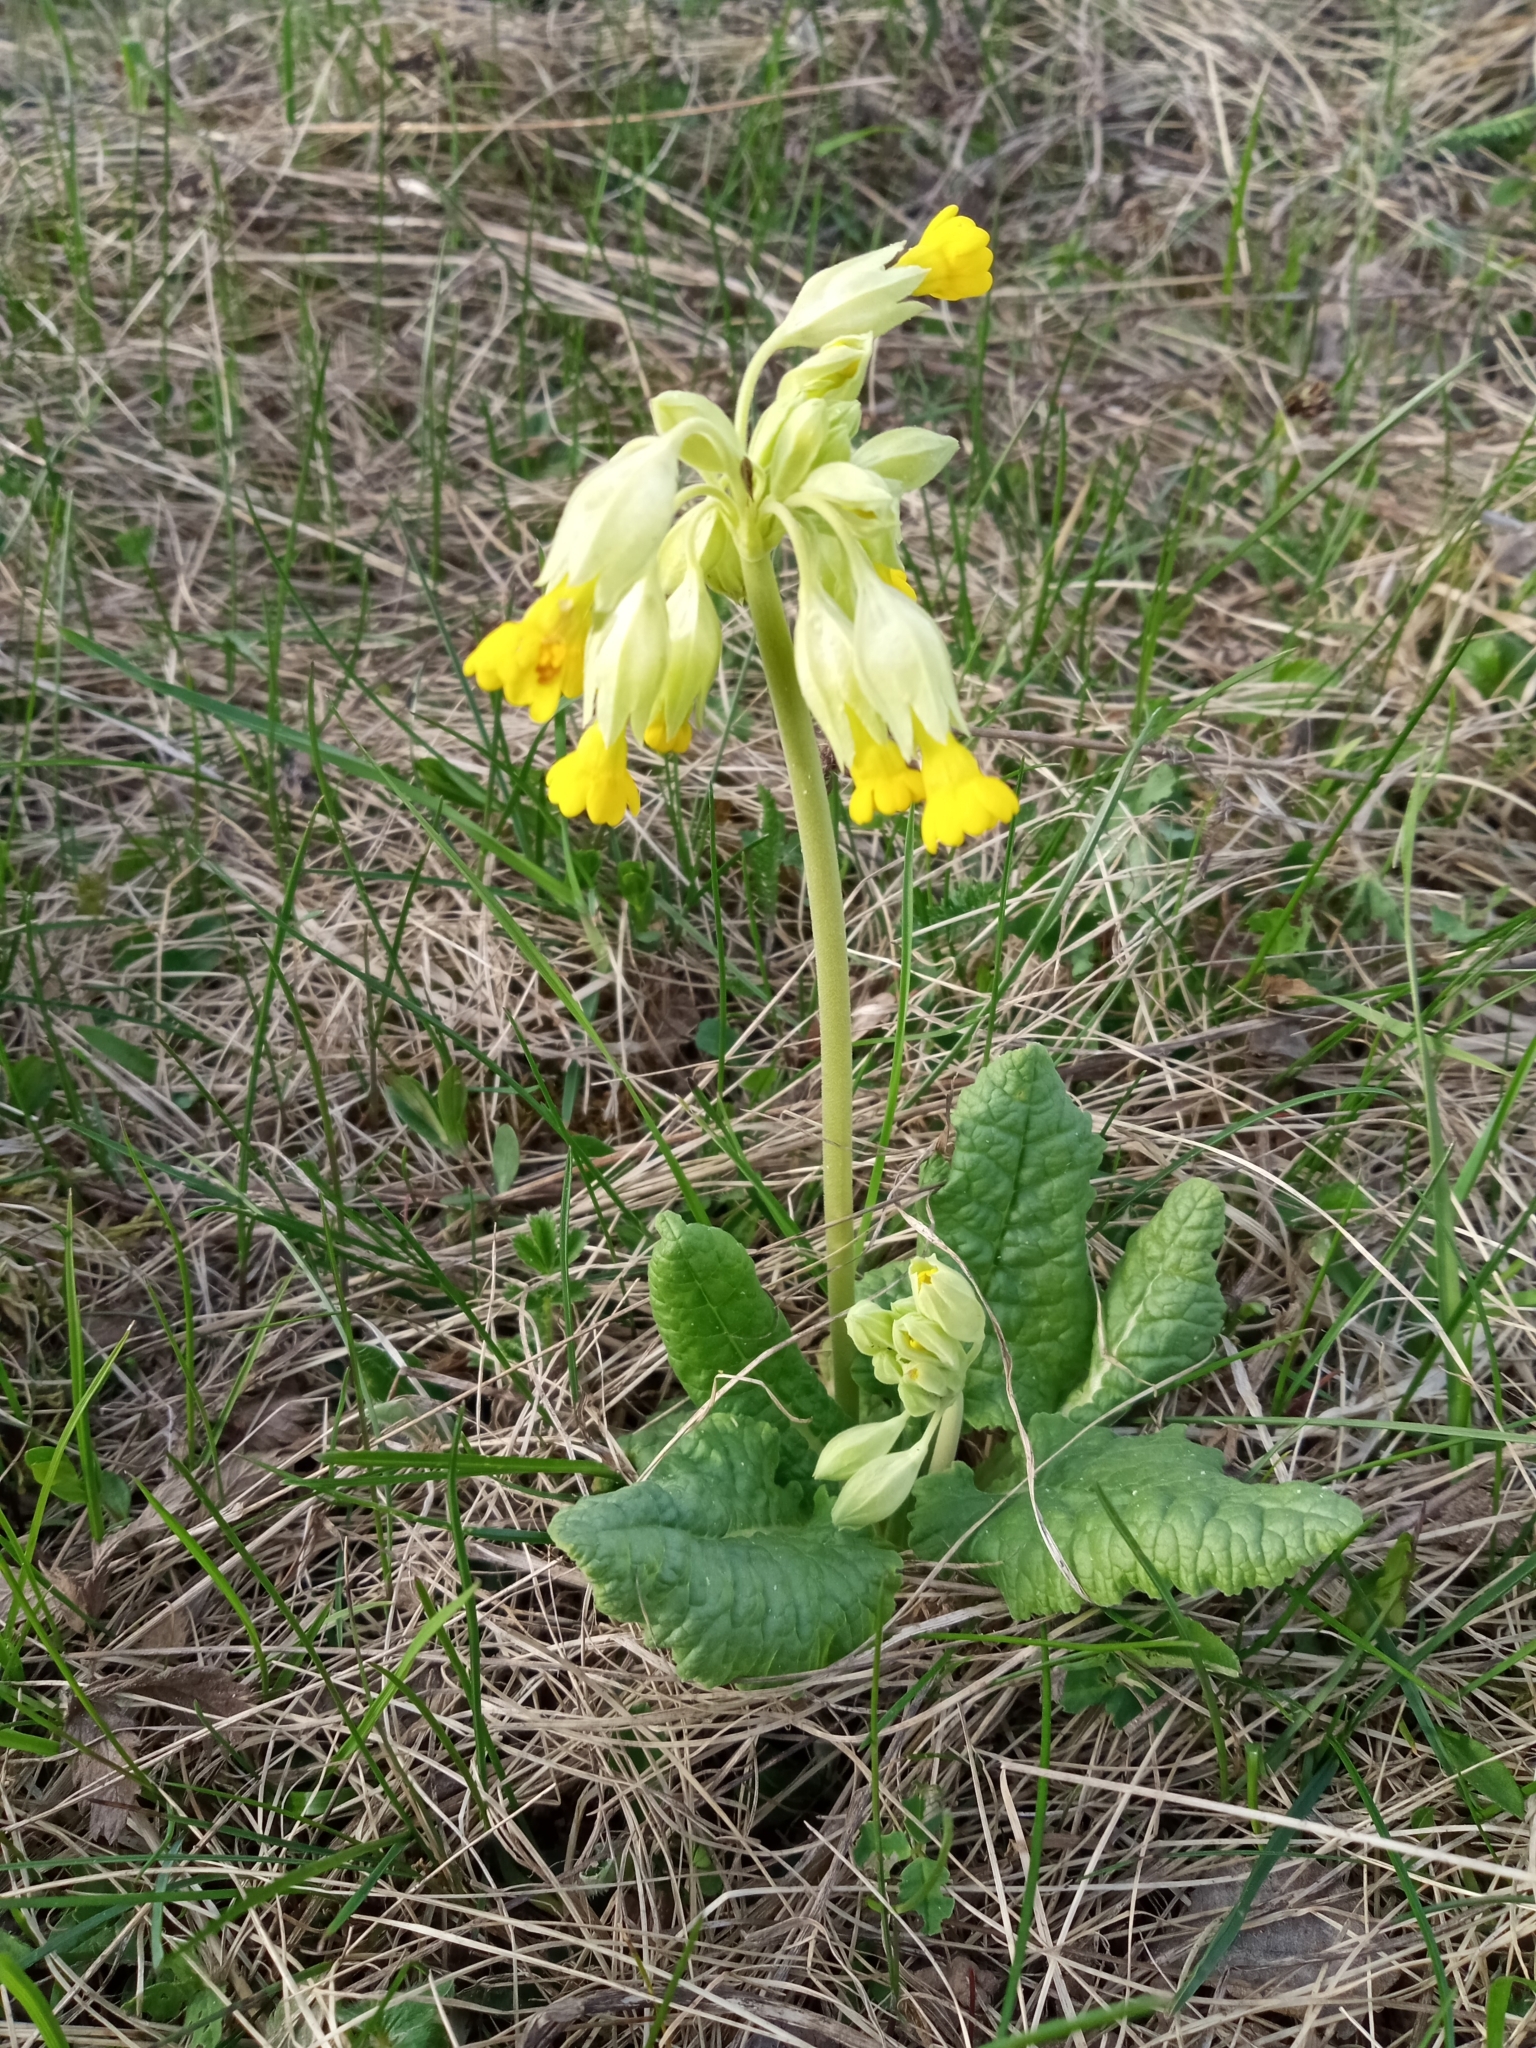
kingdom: Plantae
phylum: Tracheophyta
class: Magnoliopsida
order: Ericales
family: Primulaceae
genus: Primula
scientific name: Primula veris
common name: Cowslip
